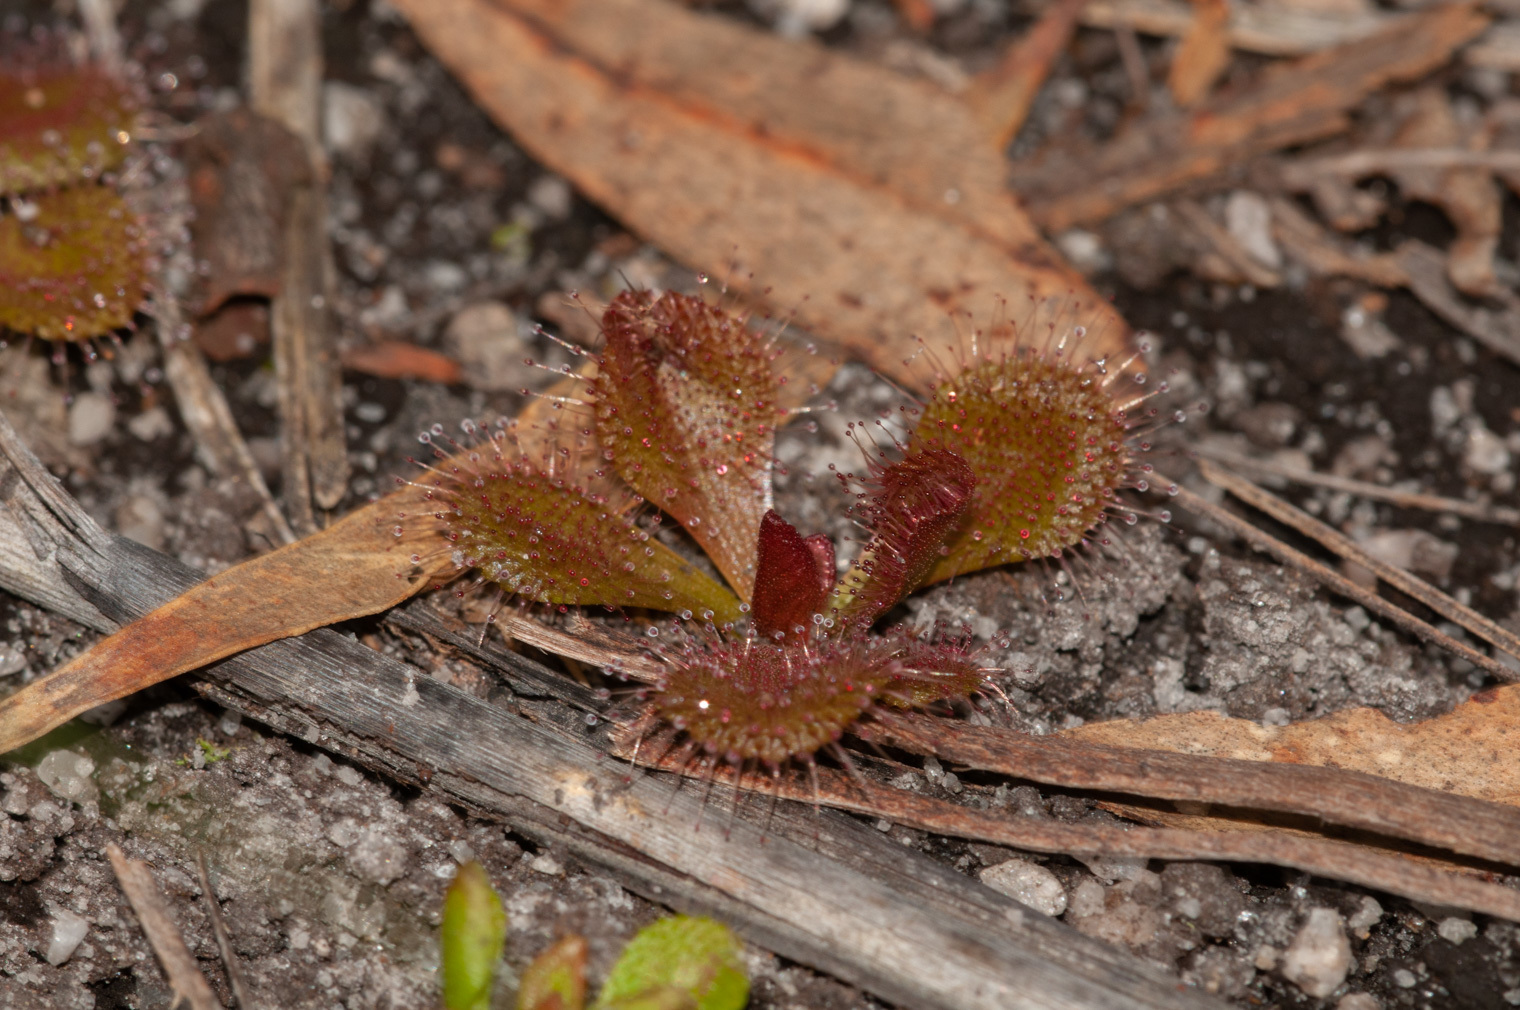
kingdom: Plantae
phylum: Tracheophyta
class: Magnoliopsida
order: Caryophyllales
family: Droseraceae
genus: Drosera
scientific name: Drosera aberrans
